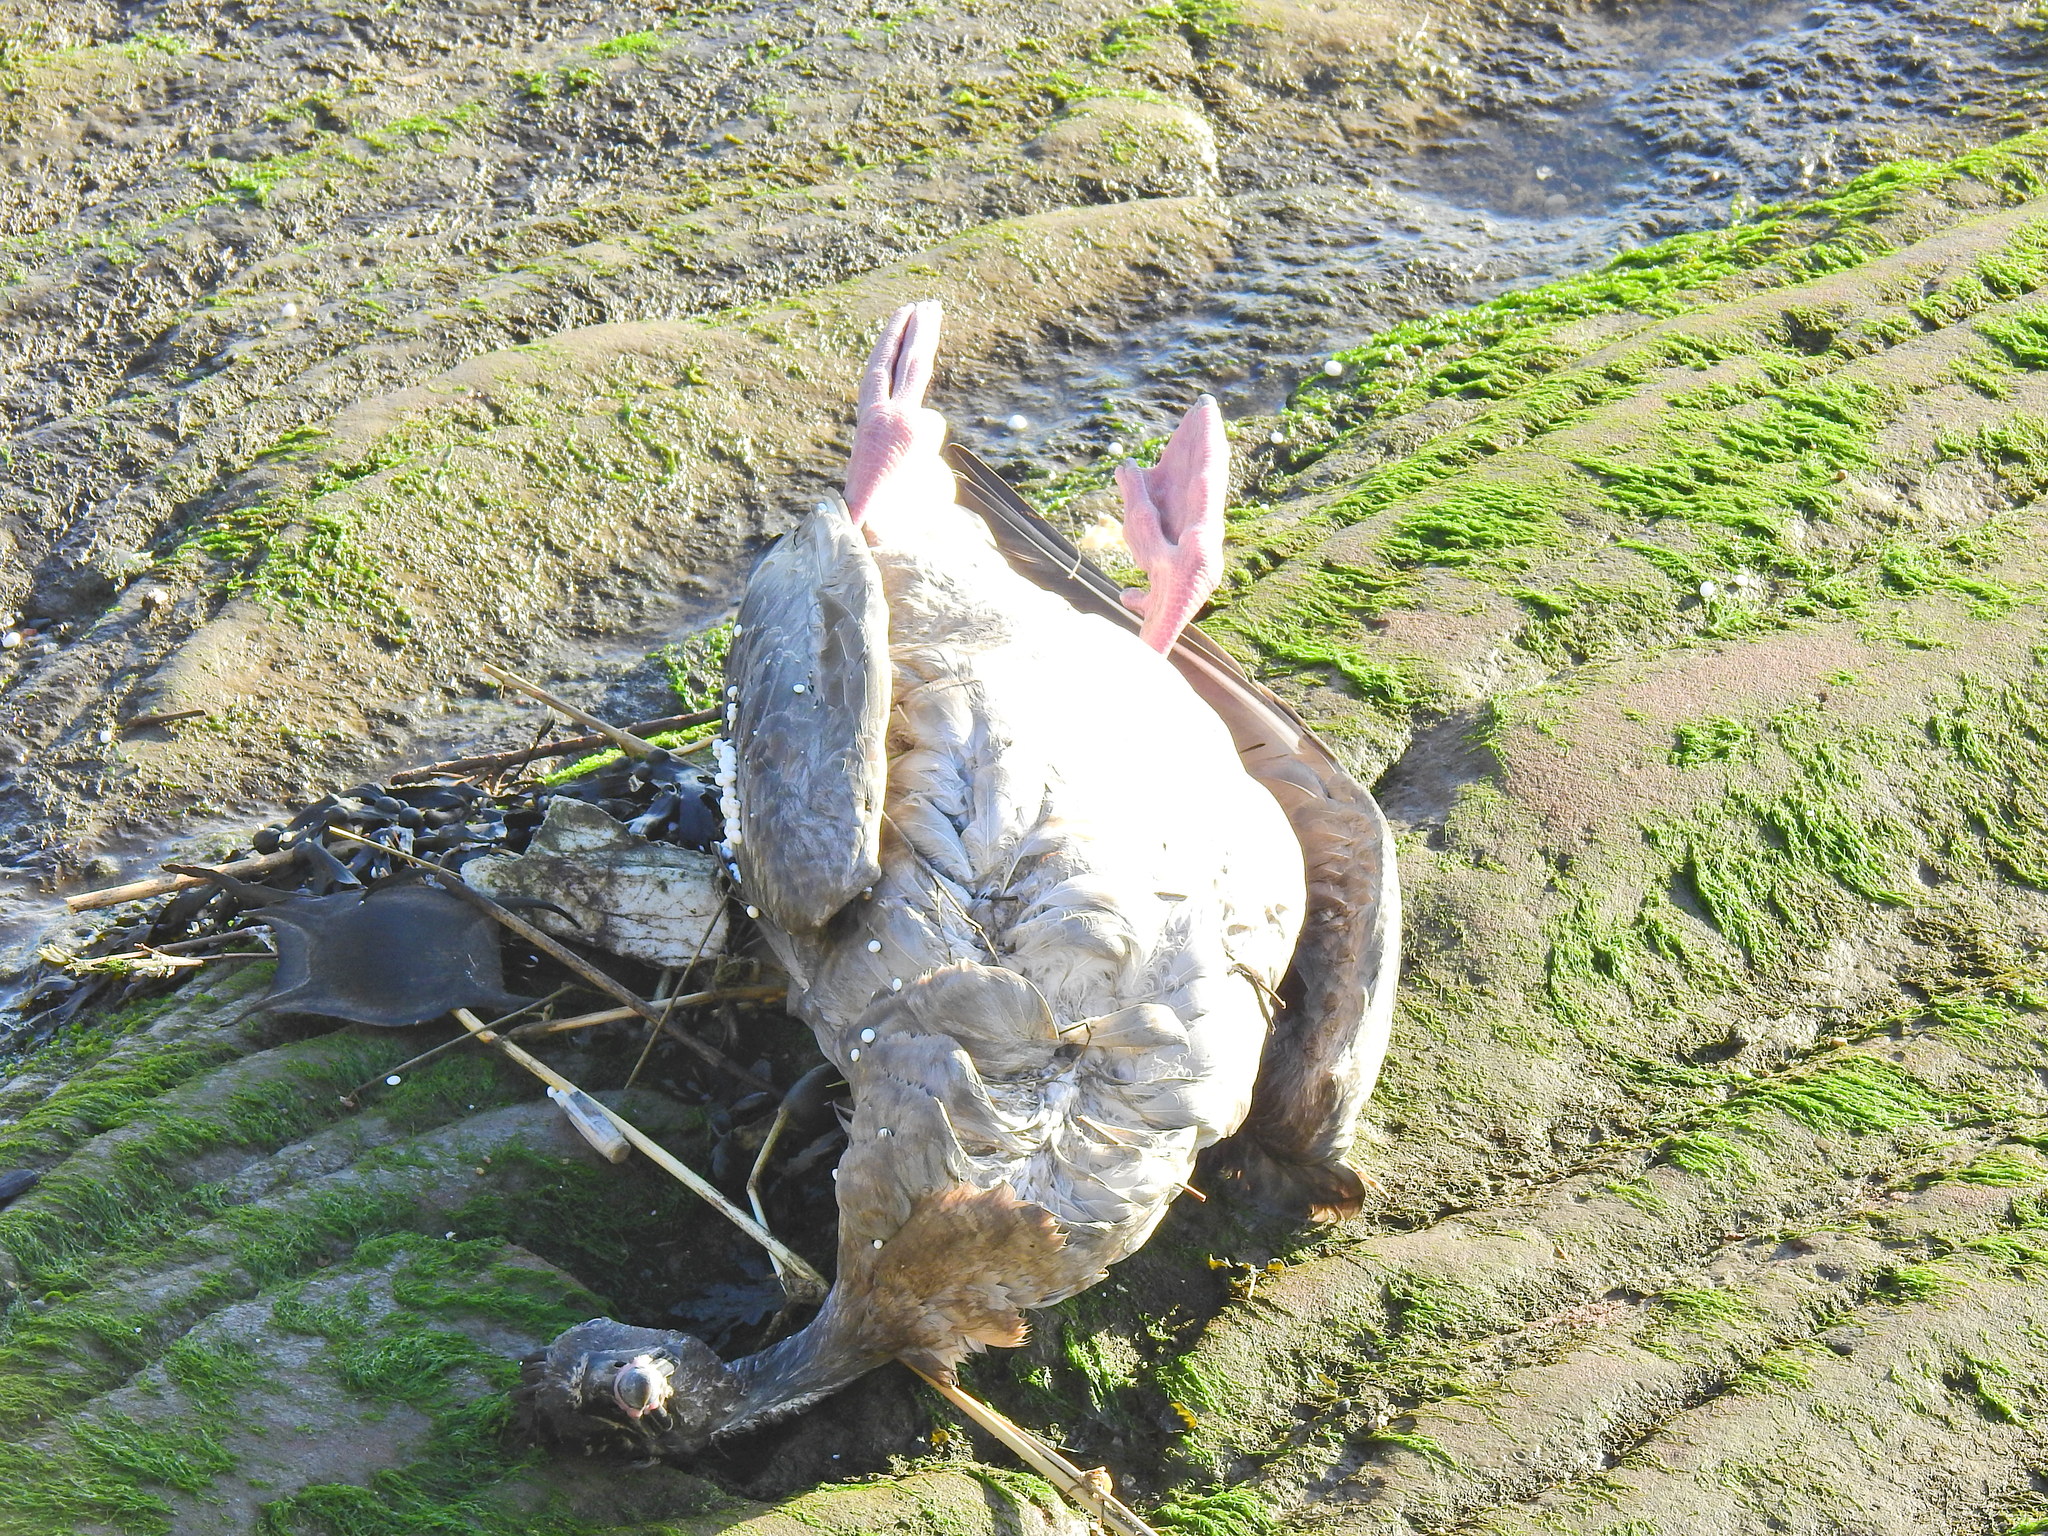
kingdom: Animalia
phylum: Chordata
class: Aves
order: Anseriformes
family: Anatidae
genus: Anser
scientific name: Anser brachyrhynchus
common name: Pink-footed goose
